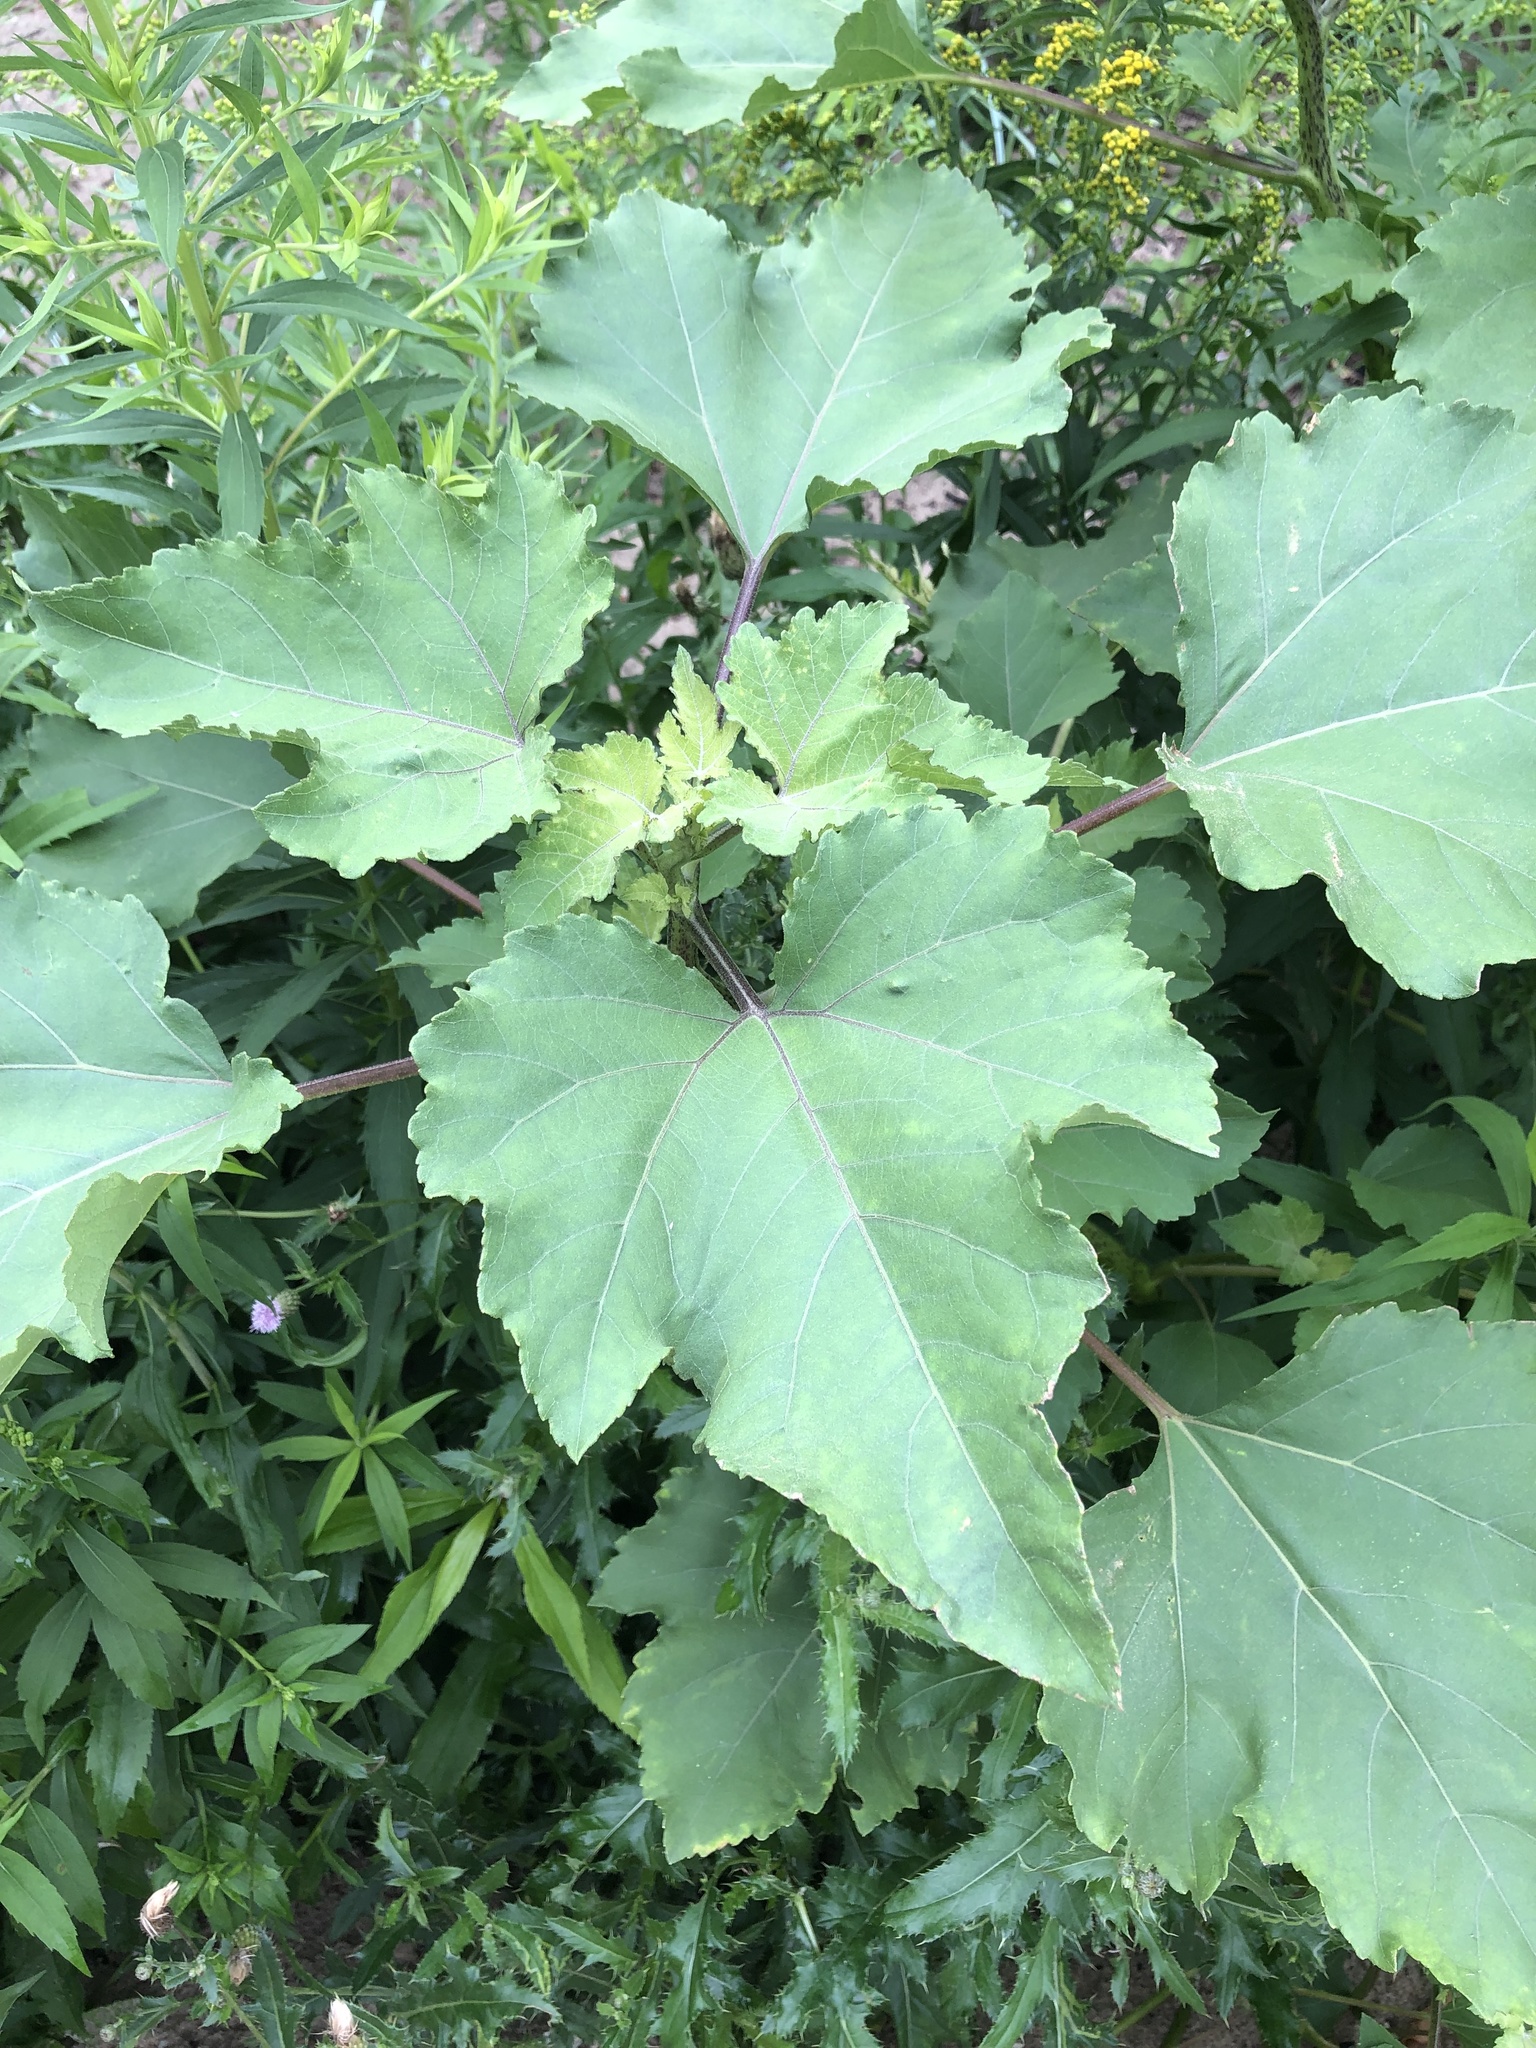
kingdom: Plantae
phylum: Tracheophyta
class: Magnoliopsida
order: Asterales
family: Asteraceae
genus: Xanthium
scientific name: Xanthium strumarium
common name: Rough cocklebur
